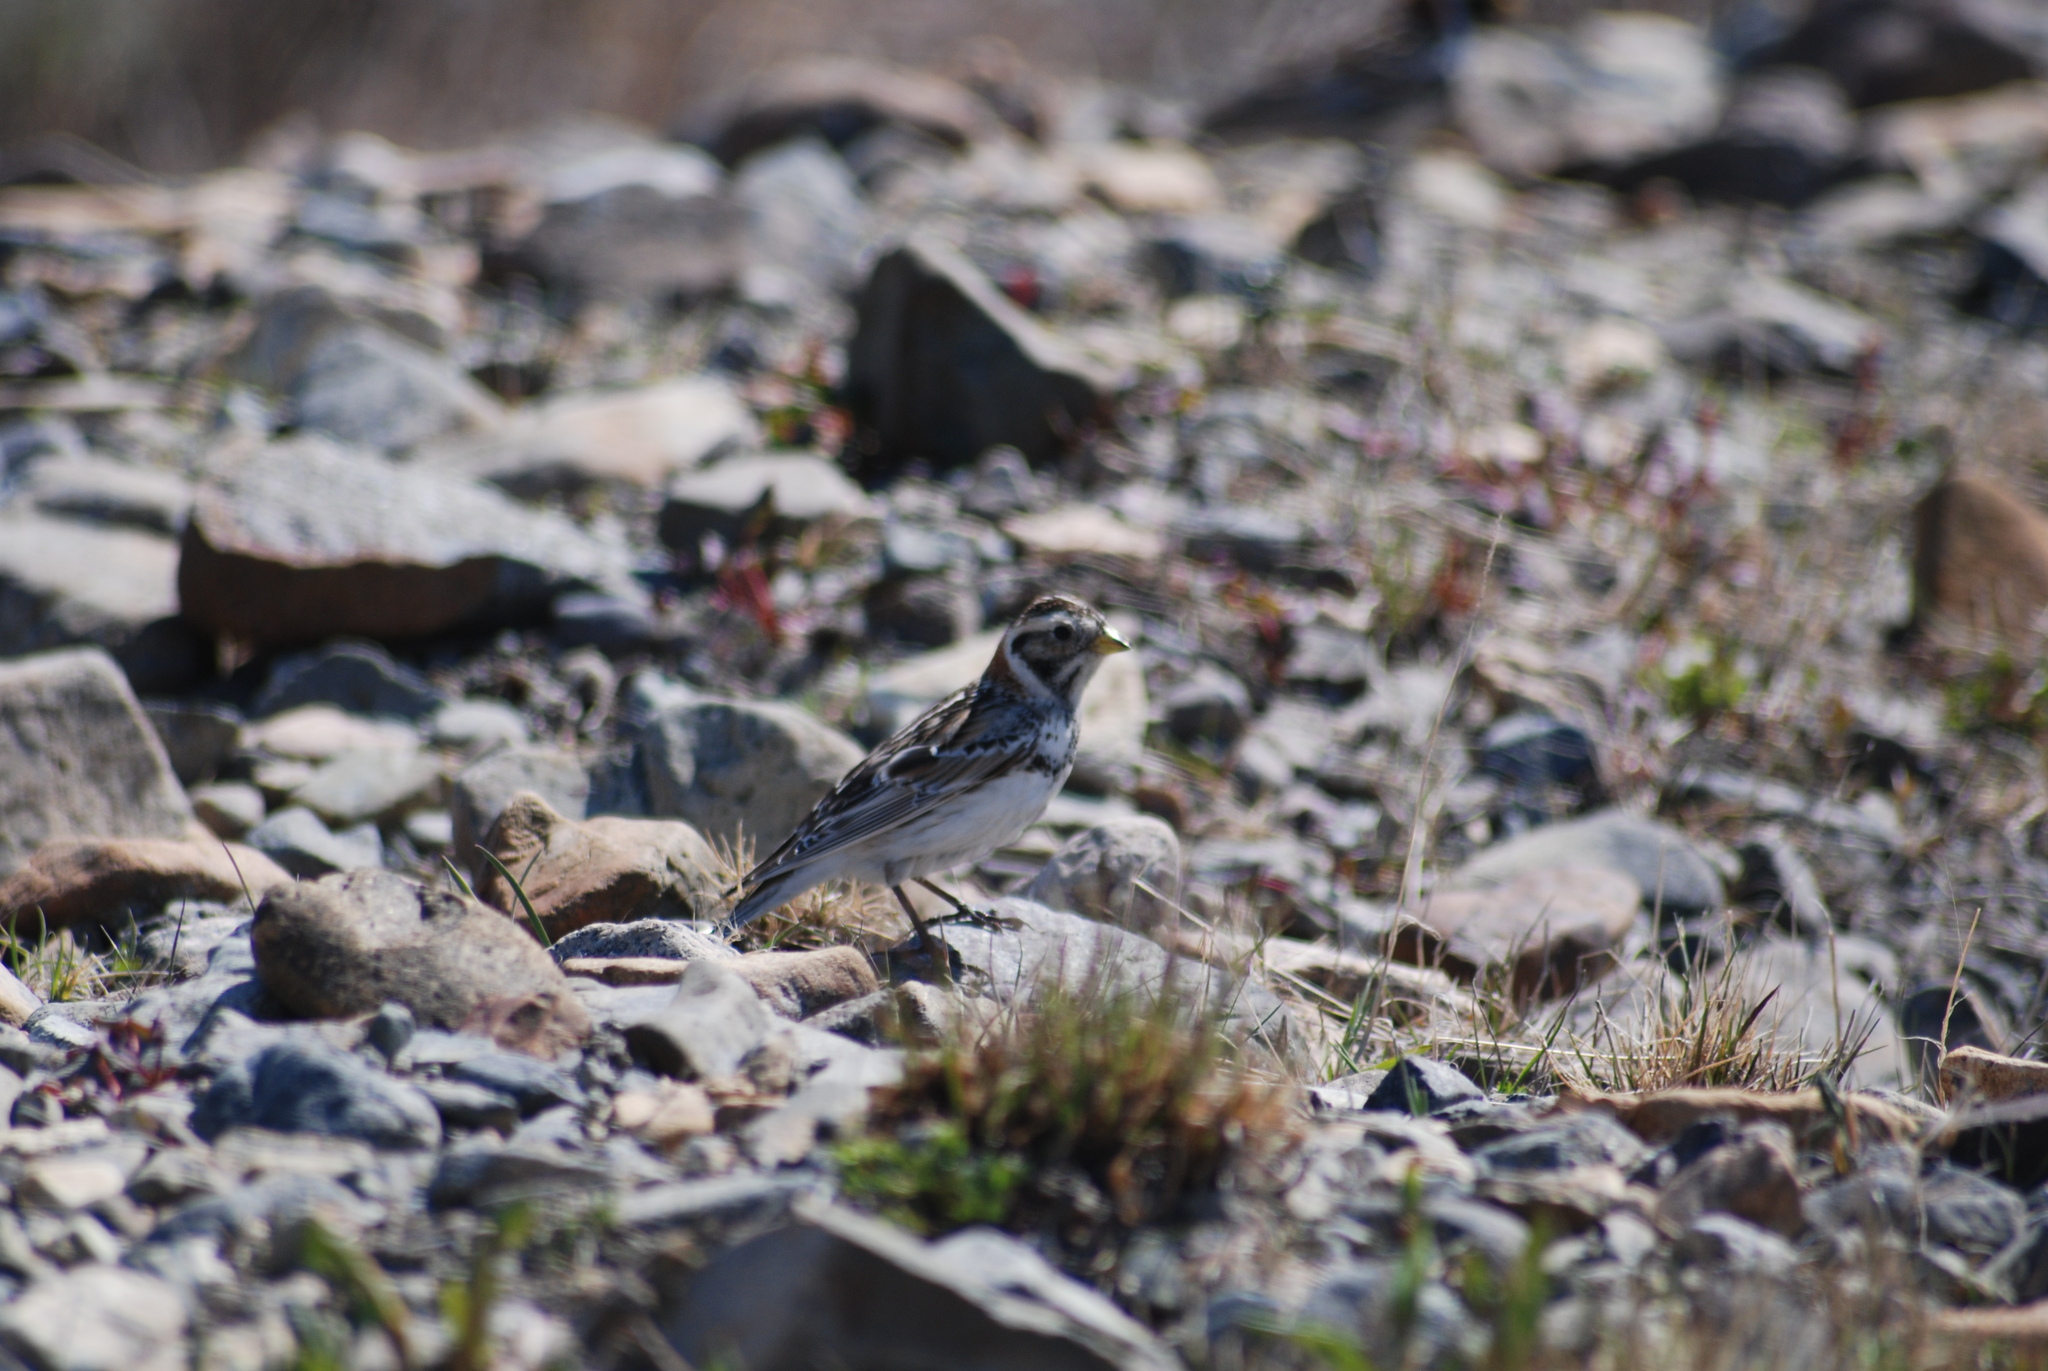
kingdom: Animalia
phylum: Chordata
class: Aves
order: Passeriformes
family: Calcariidae
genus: Calcarius
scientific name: Calcarius lapponicus
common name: Lapland longspur
